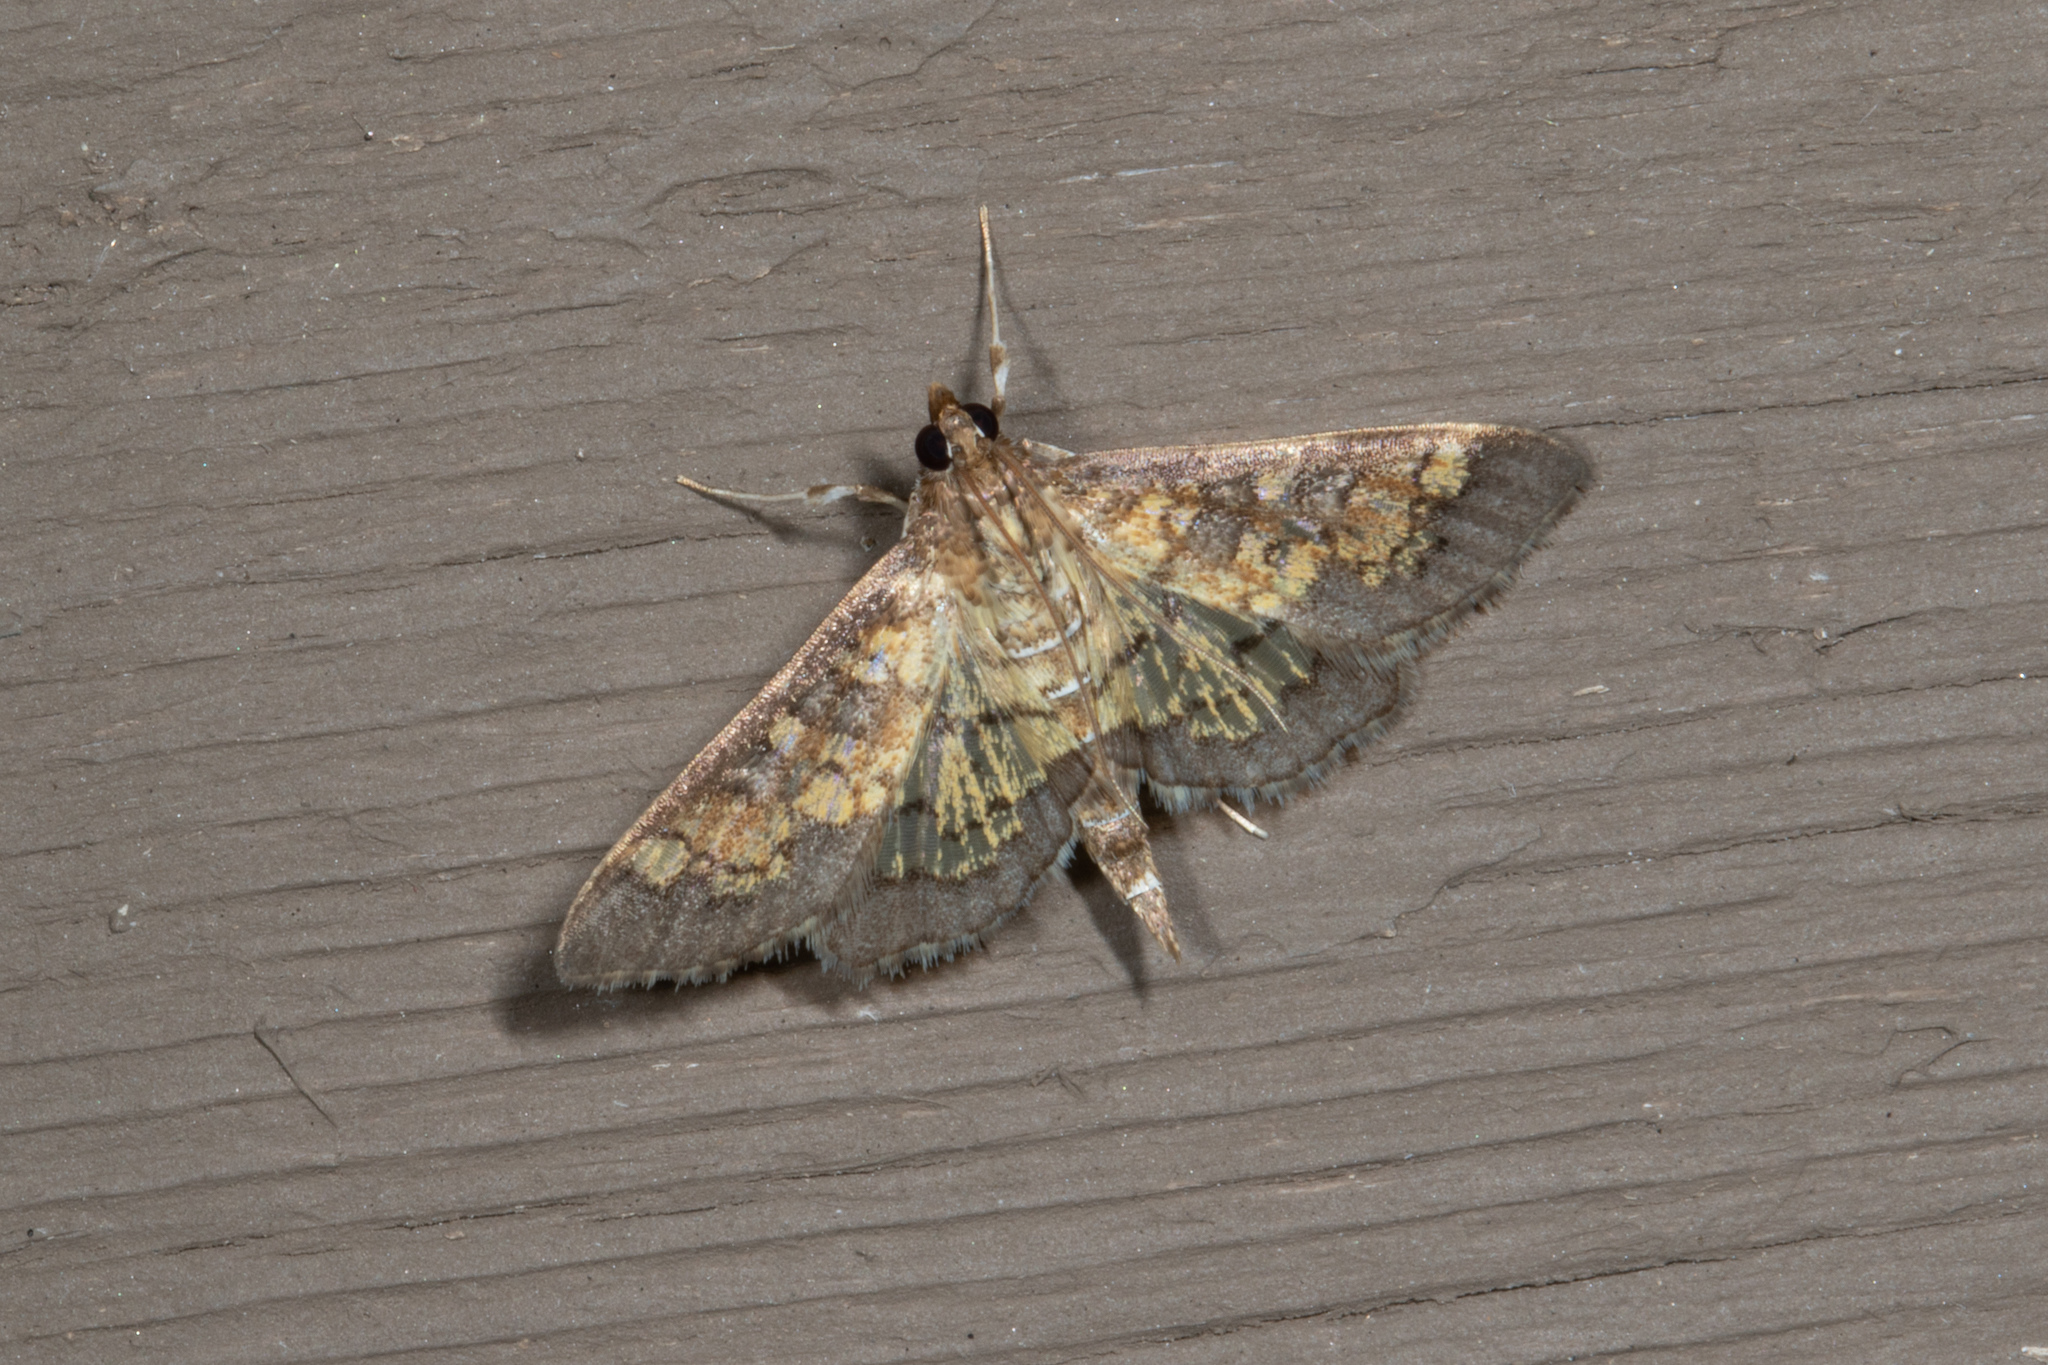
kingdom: Animalia
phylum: Arthropoda
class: Insecta
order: Lepidoptera
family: Crambidae
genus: Epipagis
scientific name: Epipagis adipaloides
